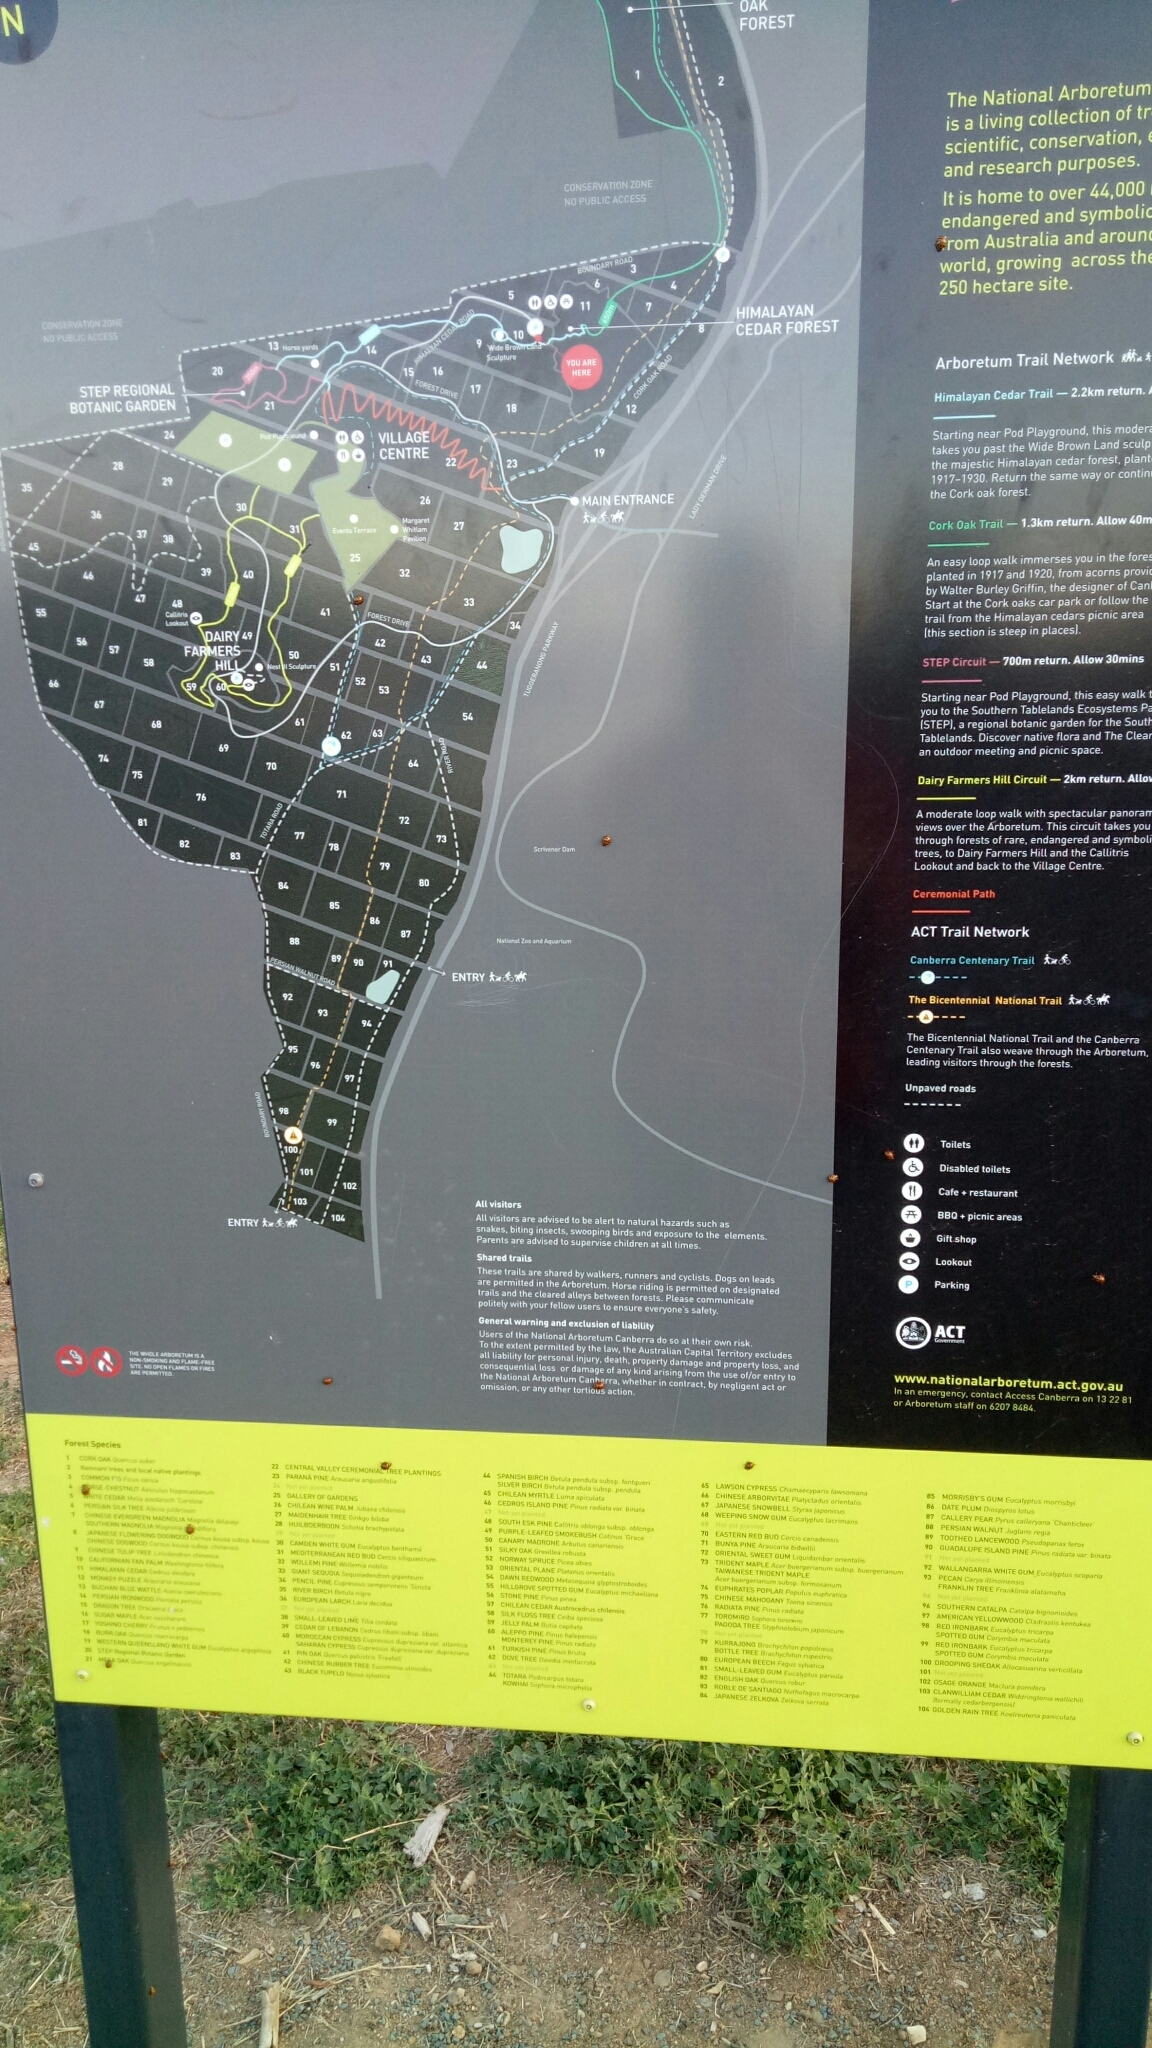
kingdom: Animalia
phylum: Arthropoda
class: Insecta
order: Coleoptera
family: Coccinellidae
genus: Harmonia
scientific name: Harmonia conformis
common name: Common spotted ladybird beetle
